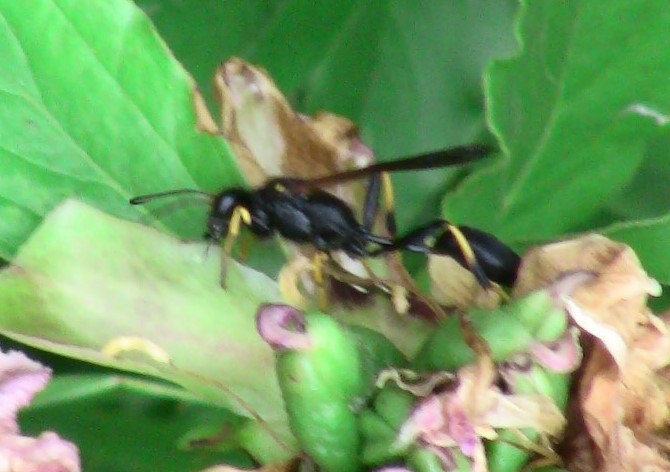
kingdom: Animalia
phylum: Arthropoda
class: Insecta
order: Hymenoptera
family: Sphecidae
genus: Sceliphron
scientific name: Sceliphron caementarium
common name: Mud dauber
